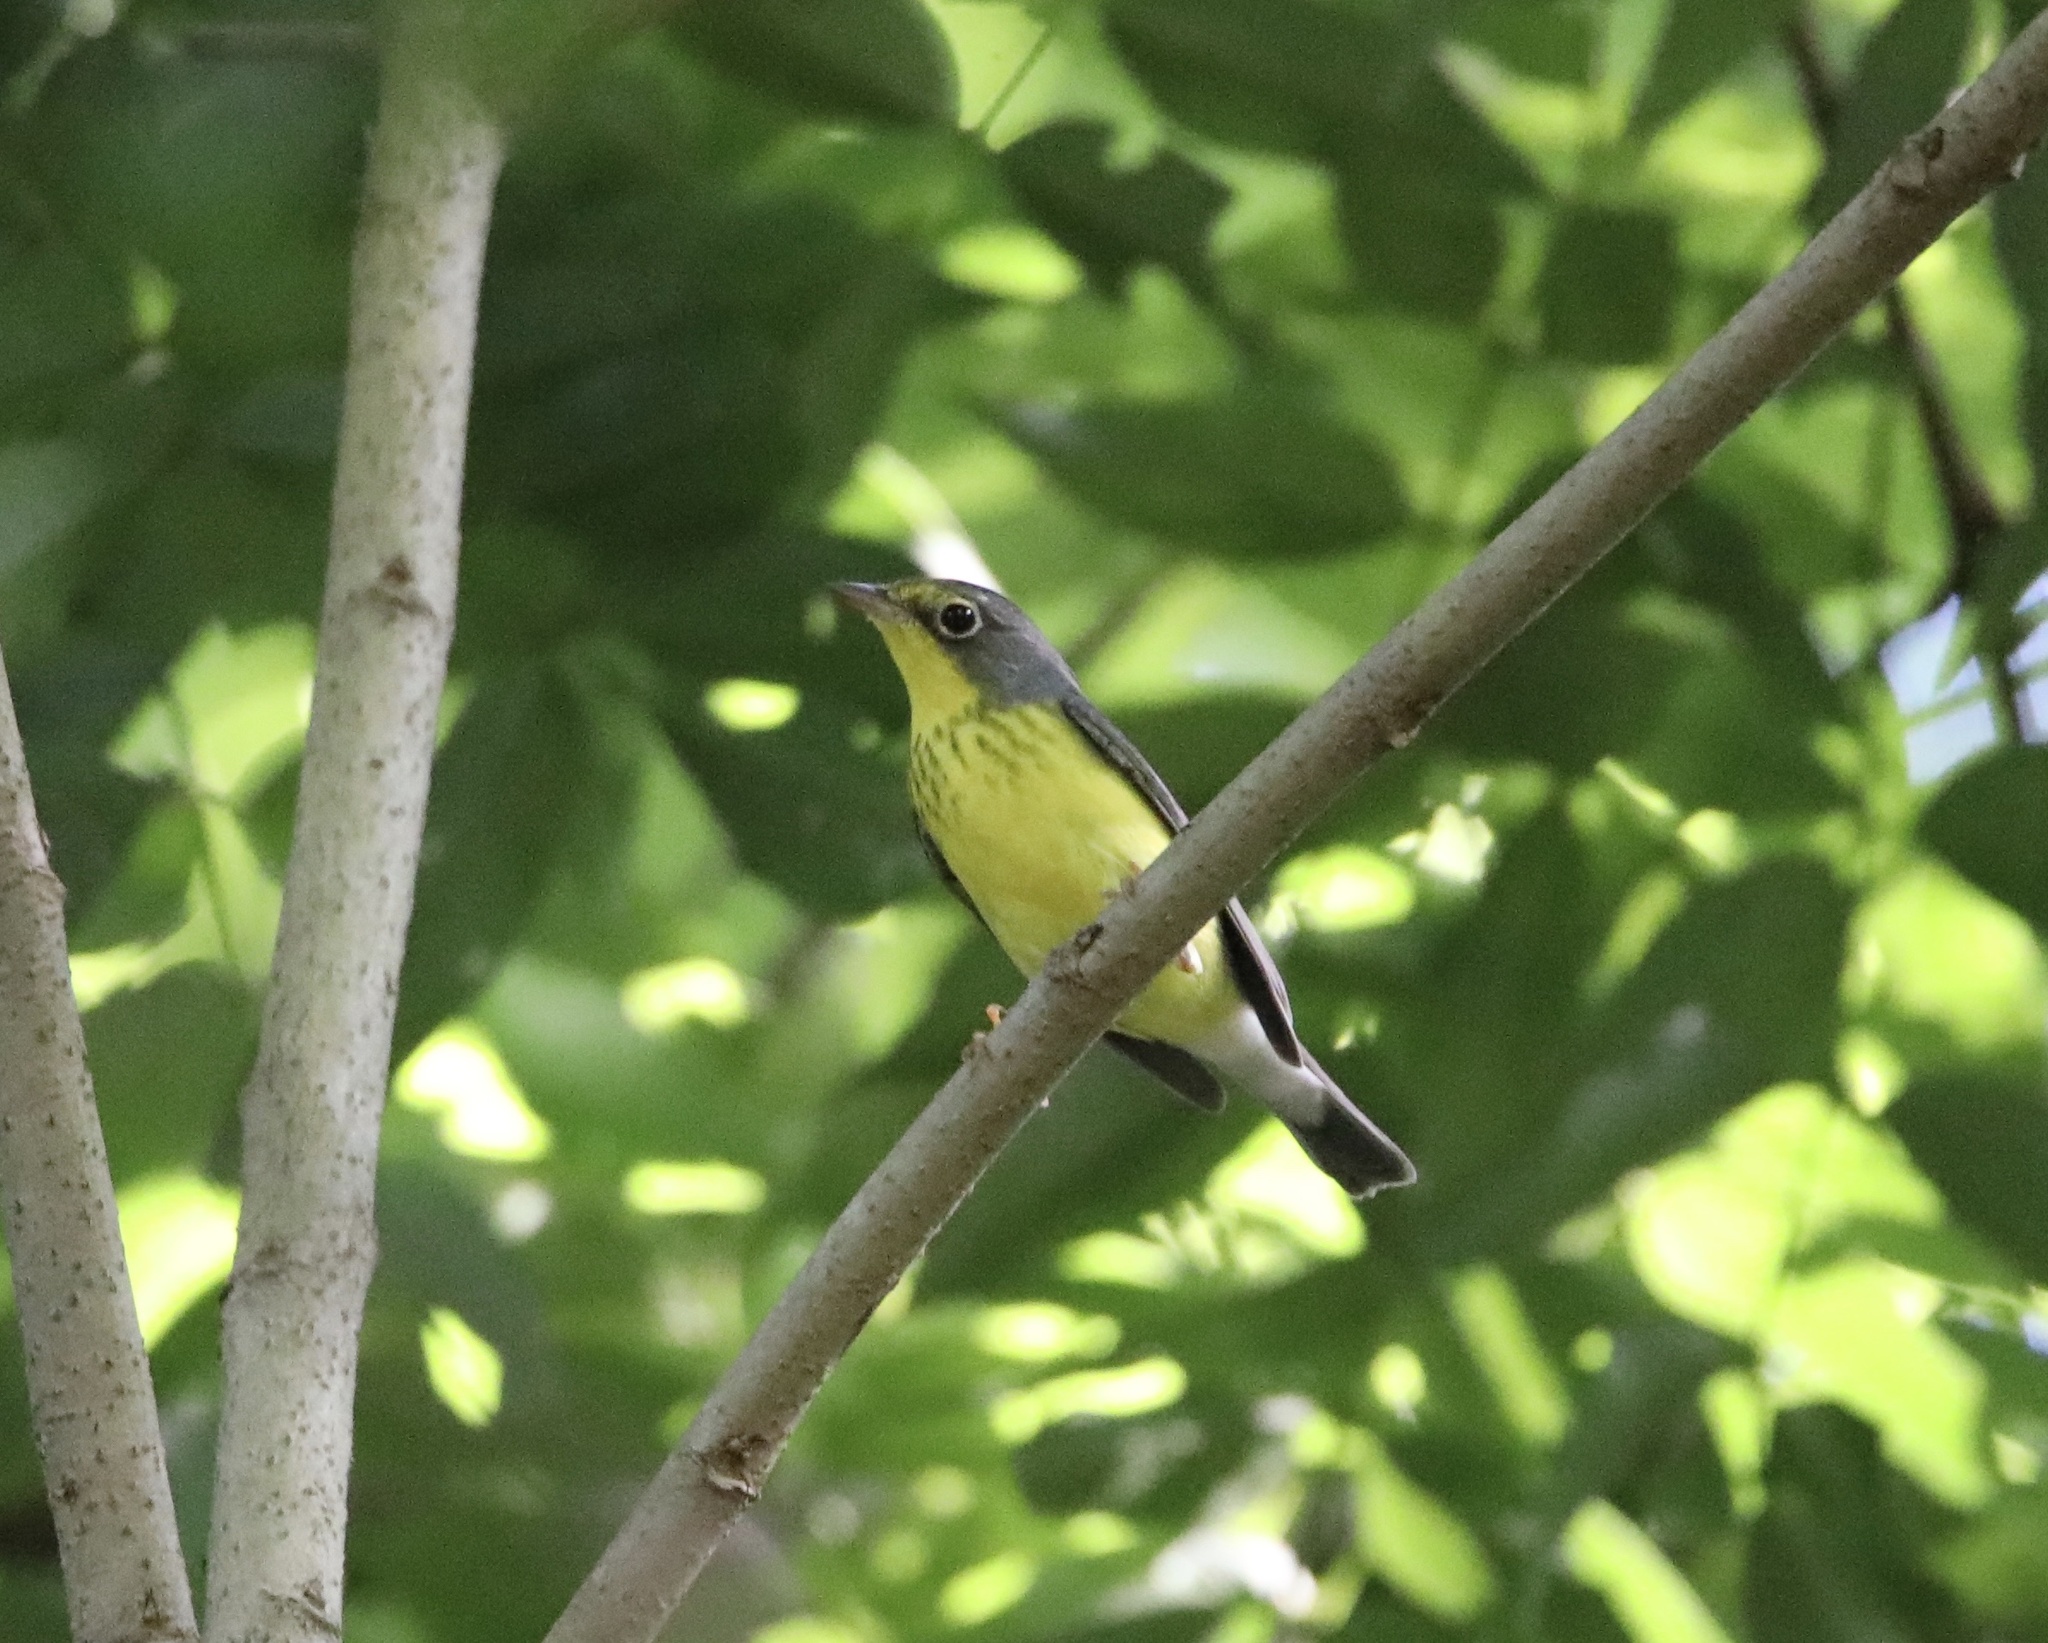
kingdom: Animalia
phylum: Chordata
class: Aves
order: Passeriformes
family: Parulidae
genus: Cardellina
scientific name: Cardellina canadensis
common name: Canada warbler
